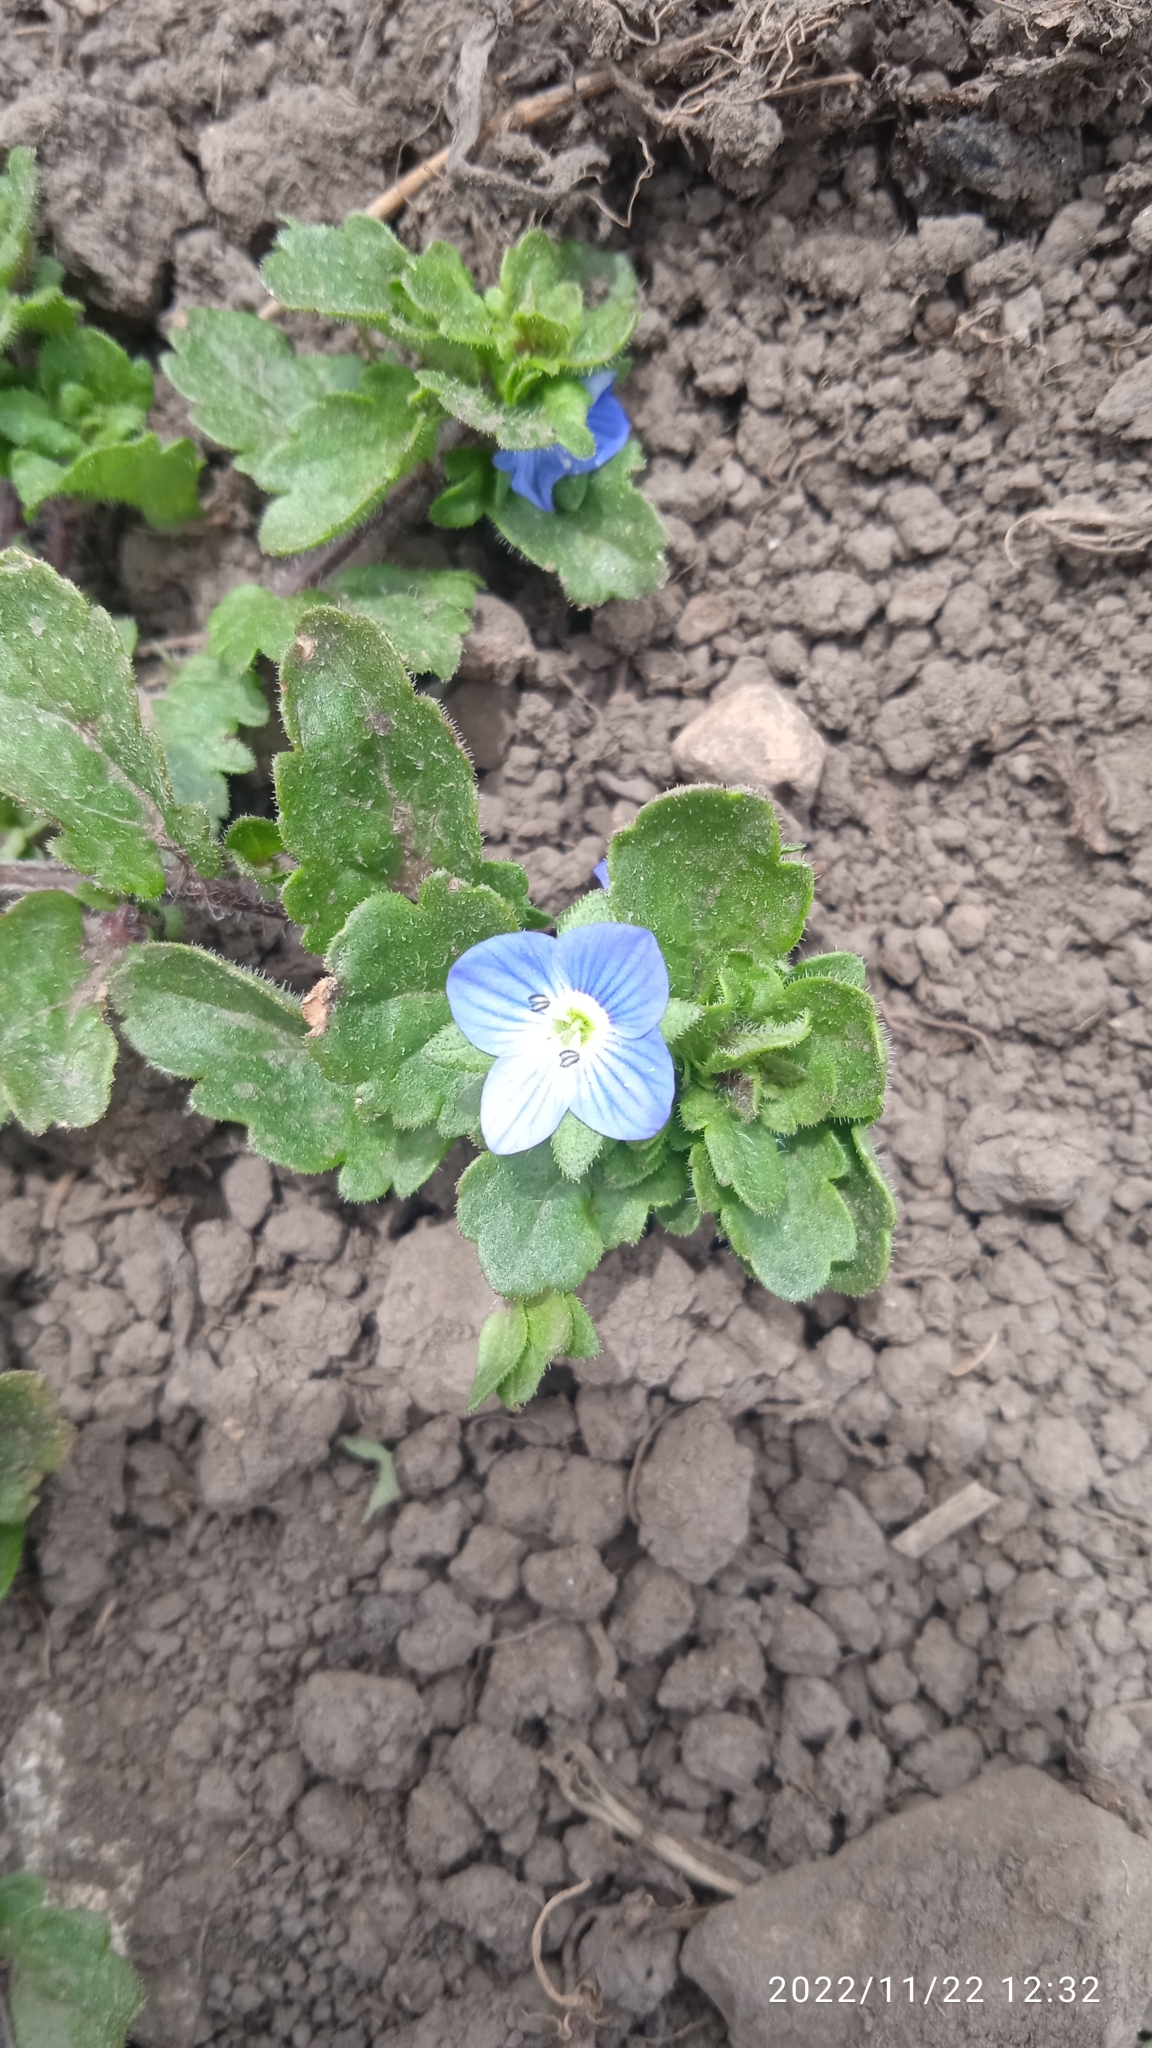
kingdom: Plantae
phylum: Tracheophyta
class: Magnoliopsida
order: Lamiales
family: Plantaginaceae
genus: Veronica
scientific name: Veronica persica
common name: Common field-speedwell
